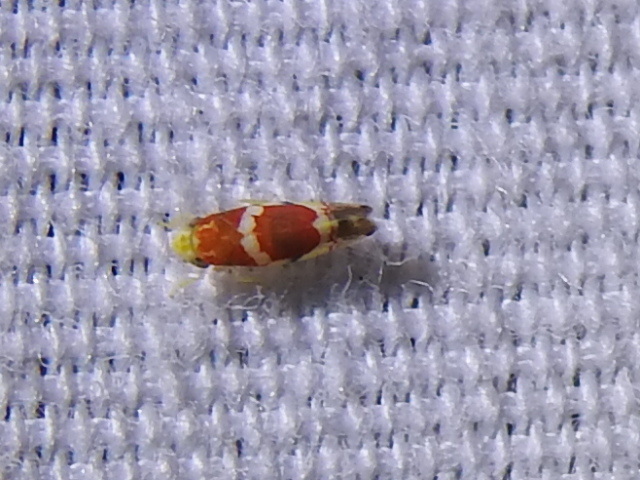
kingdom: Animalia
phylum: Arthropoda
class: Insecta
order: Hemiptera
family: Cicadellidae
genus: Erythroneura
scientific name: Erythroneura vitis
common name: Grapevine leafhopper
